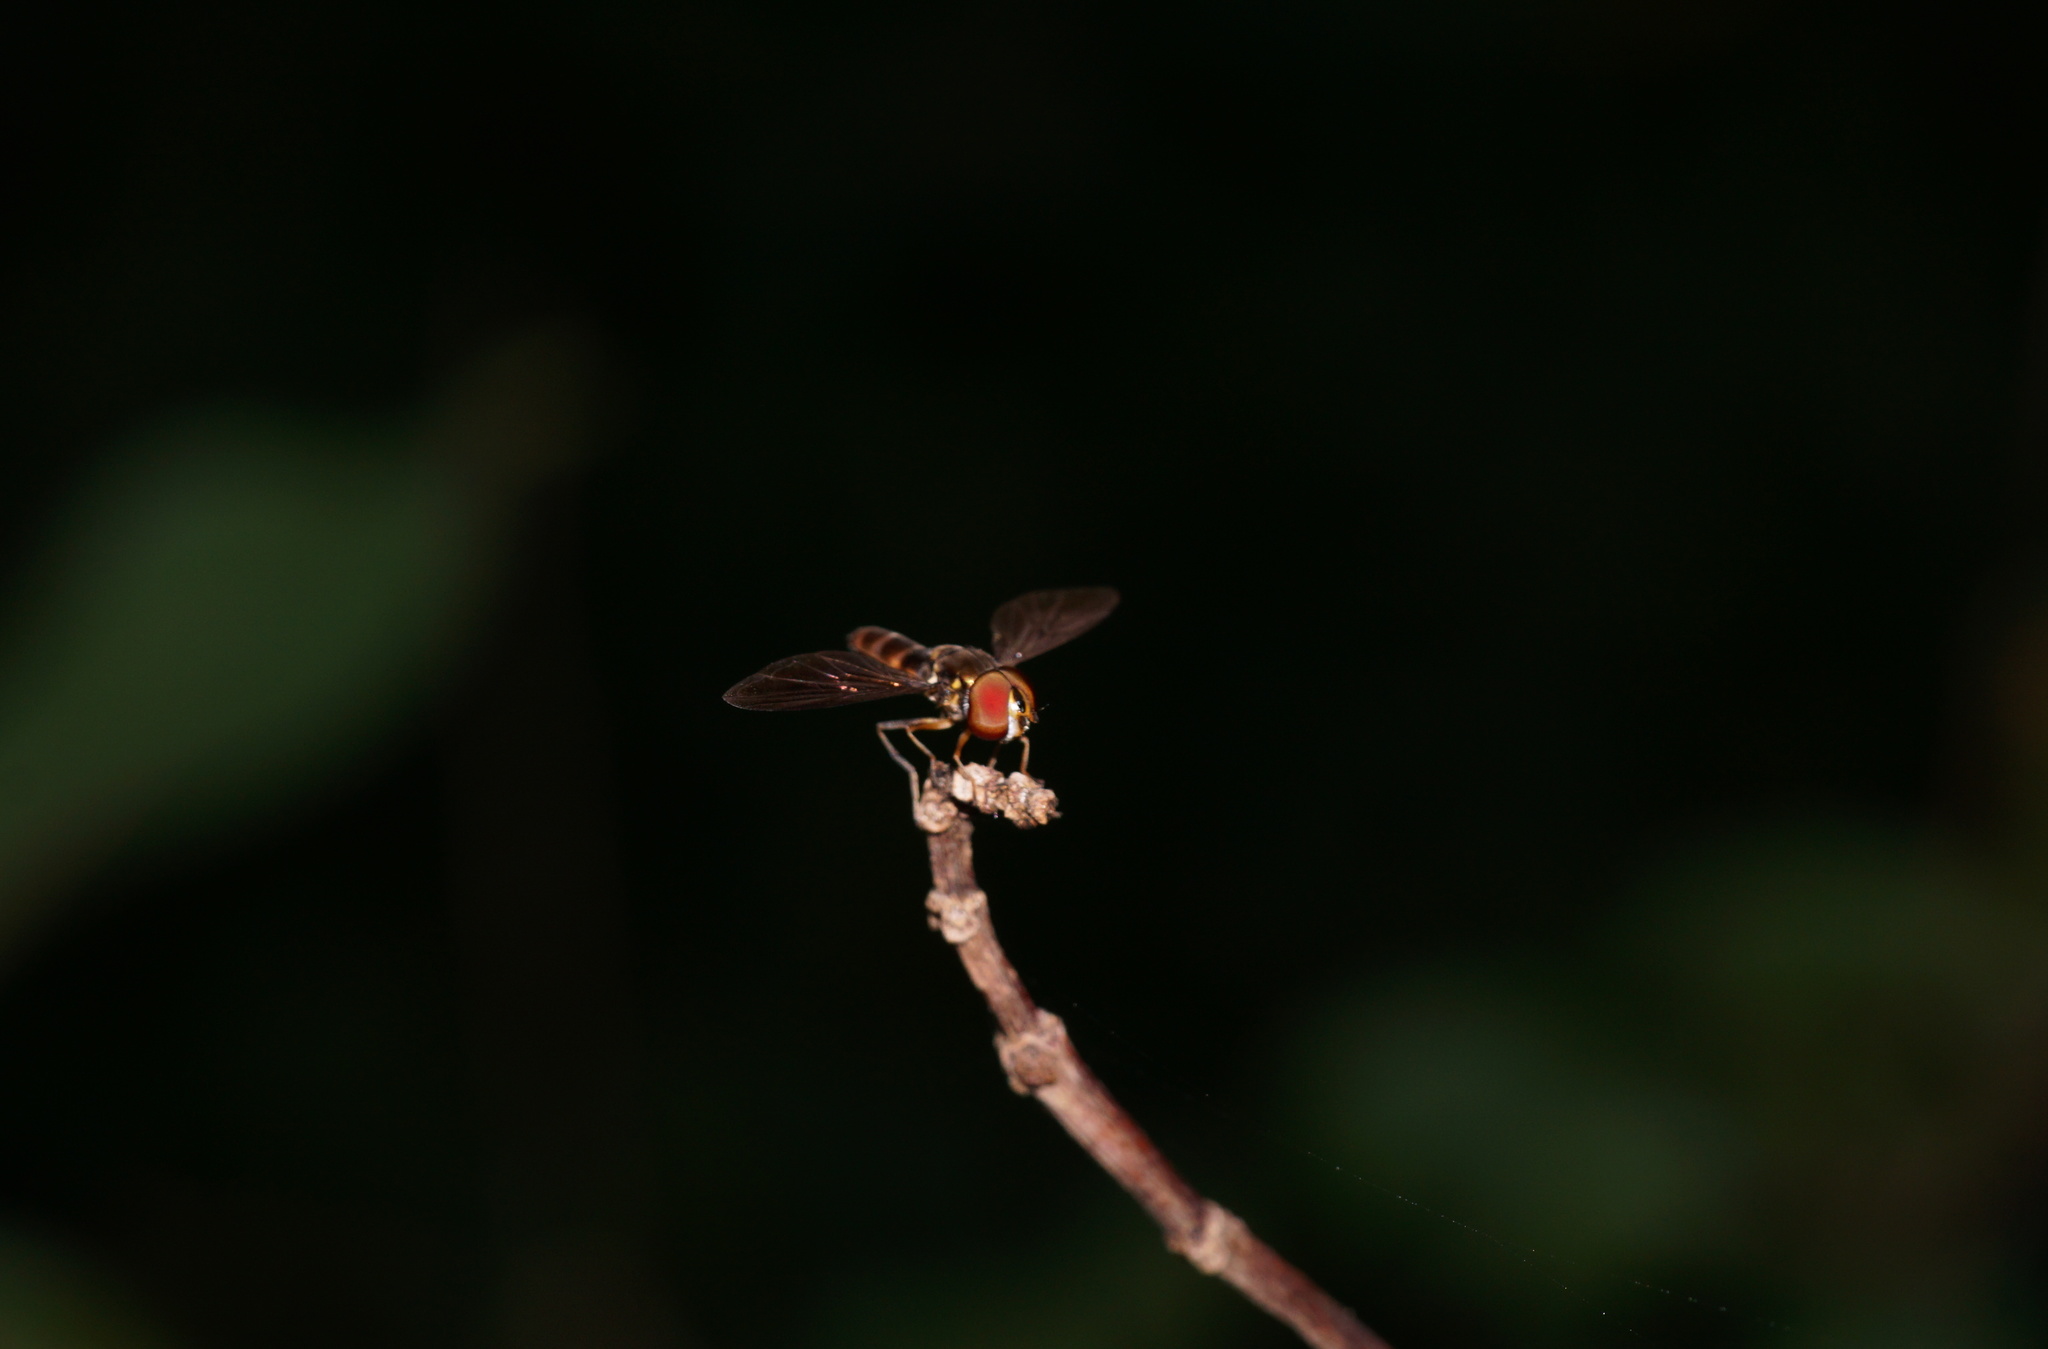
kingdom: Animalia
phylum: Arthropoda
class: Insecta
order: Diptera
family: Syrphidae
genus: Ocyptamus
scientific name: Ocyptamus antiphates
